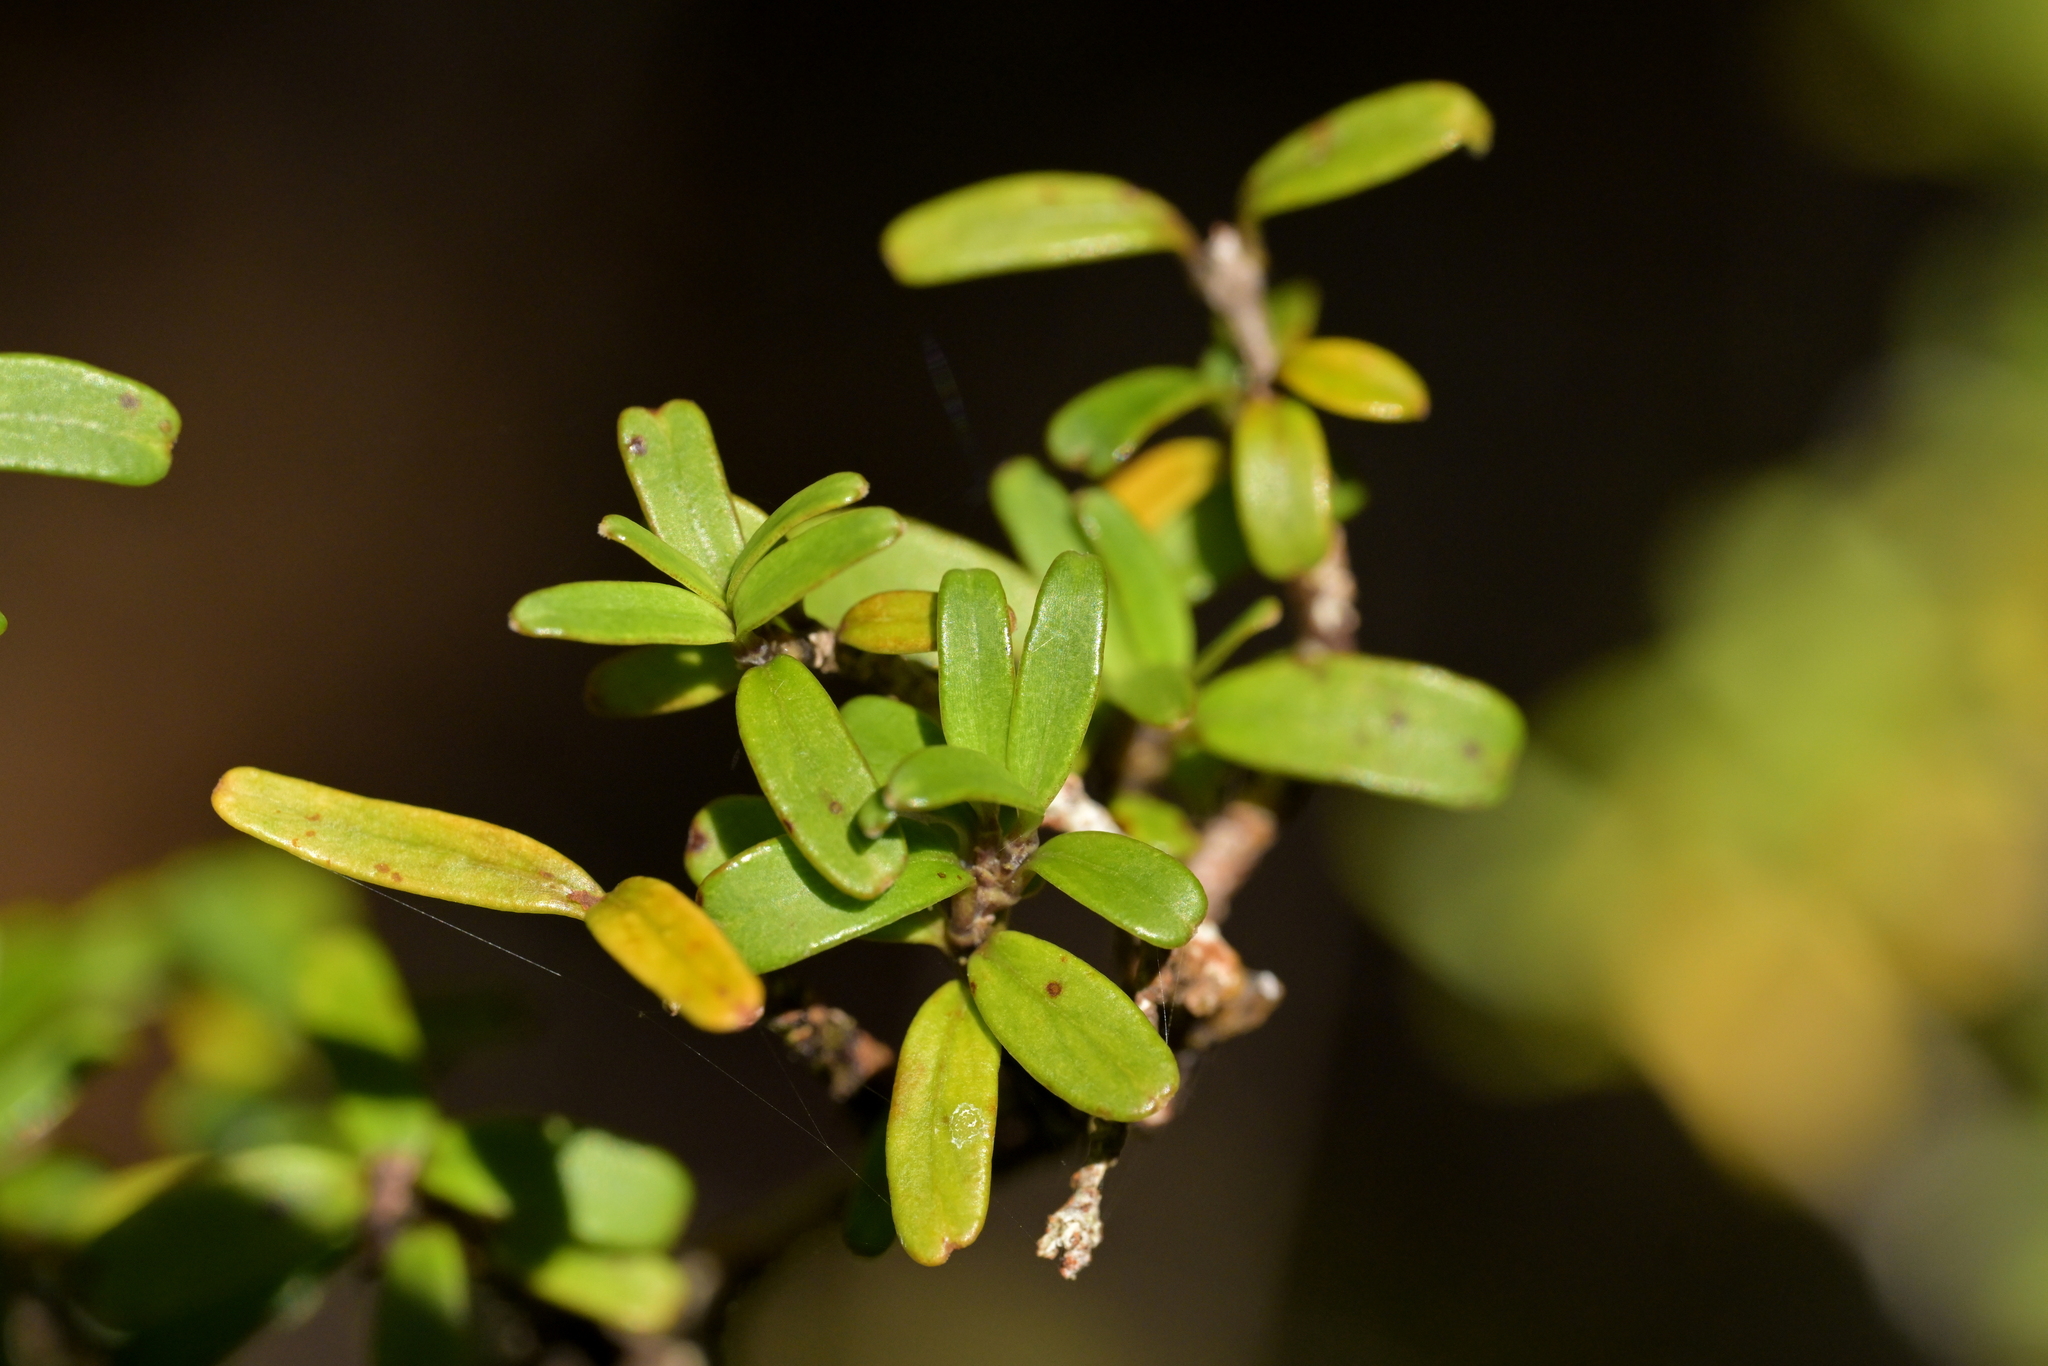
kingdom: Plantae
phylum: Tracheophyta
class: Magnoliopsida
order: Gentianales
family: Rubiaceae
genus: Coprosma
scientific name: Coprosma microcarpa
